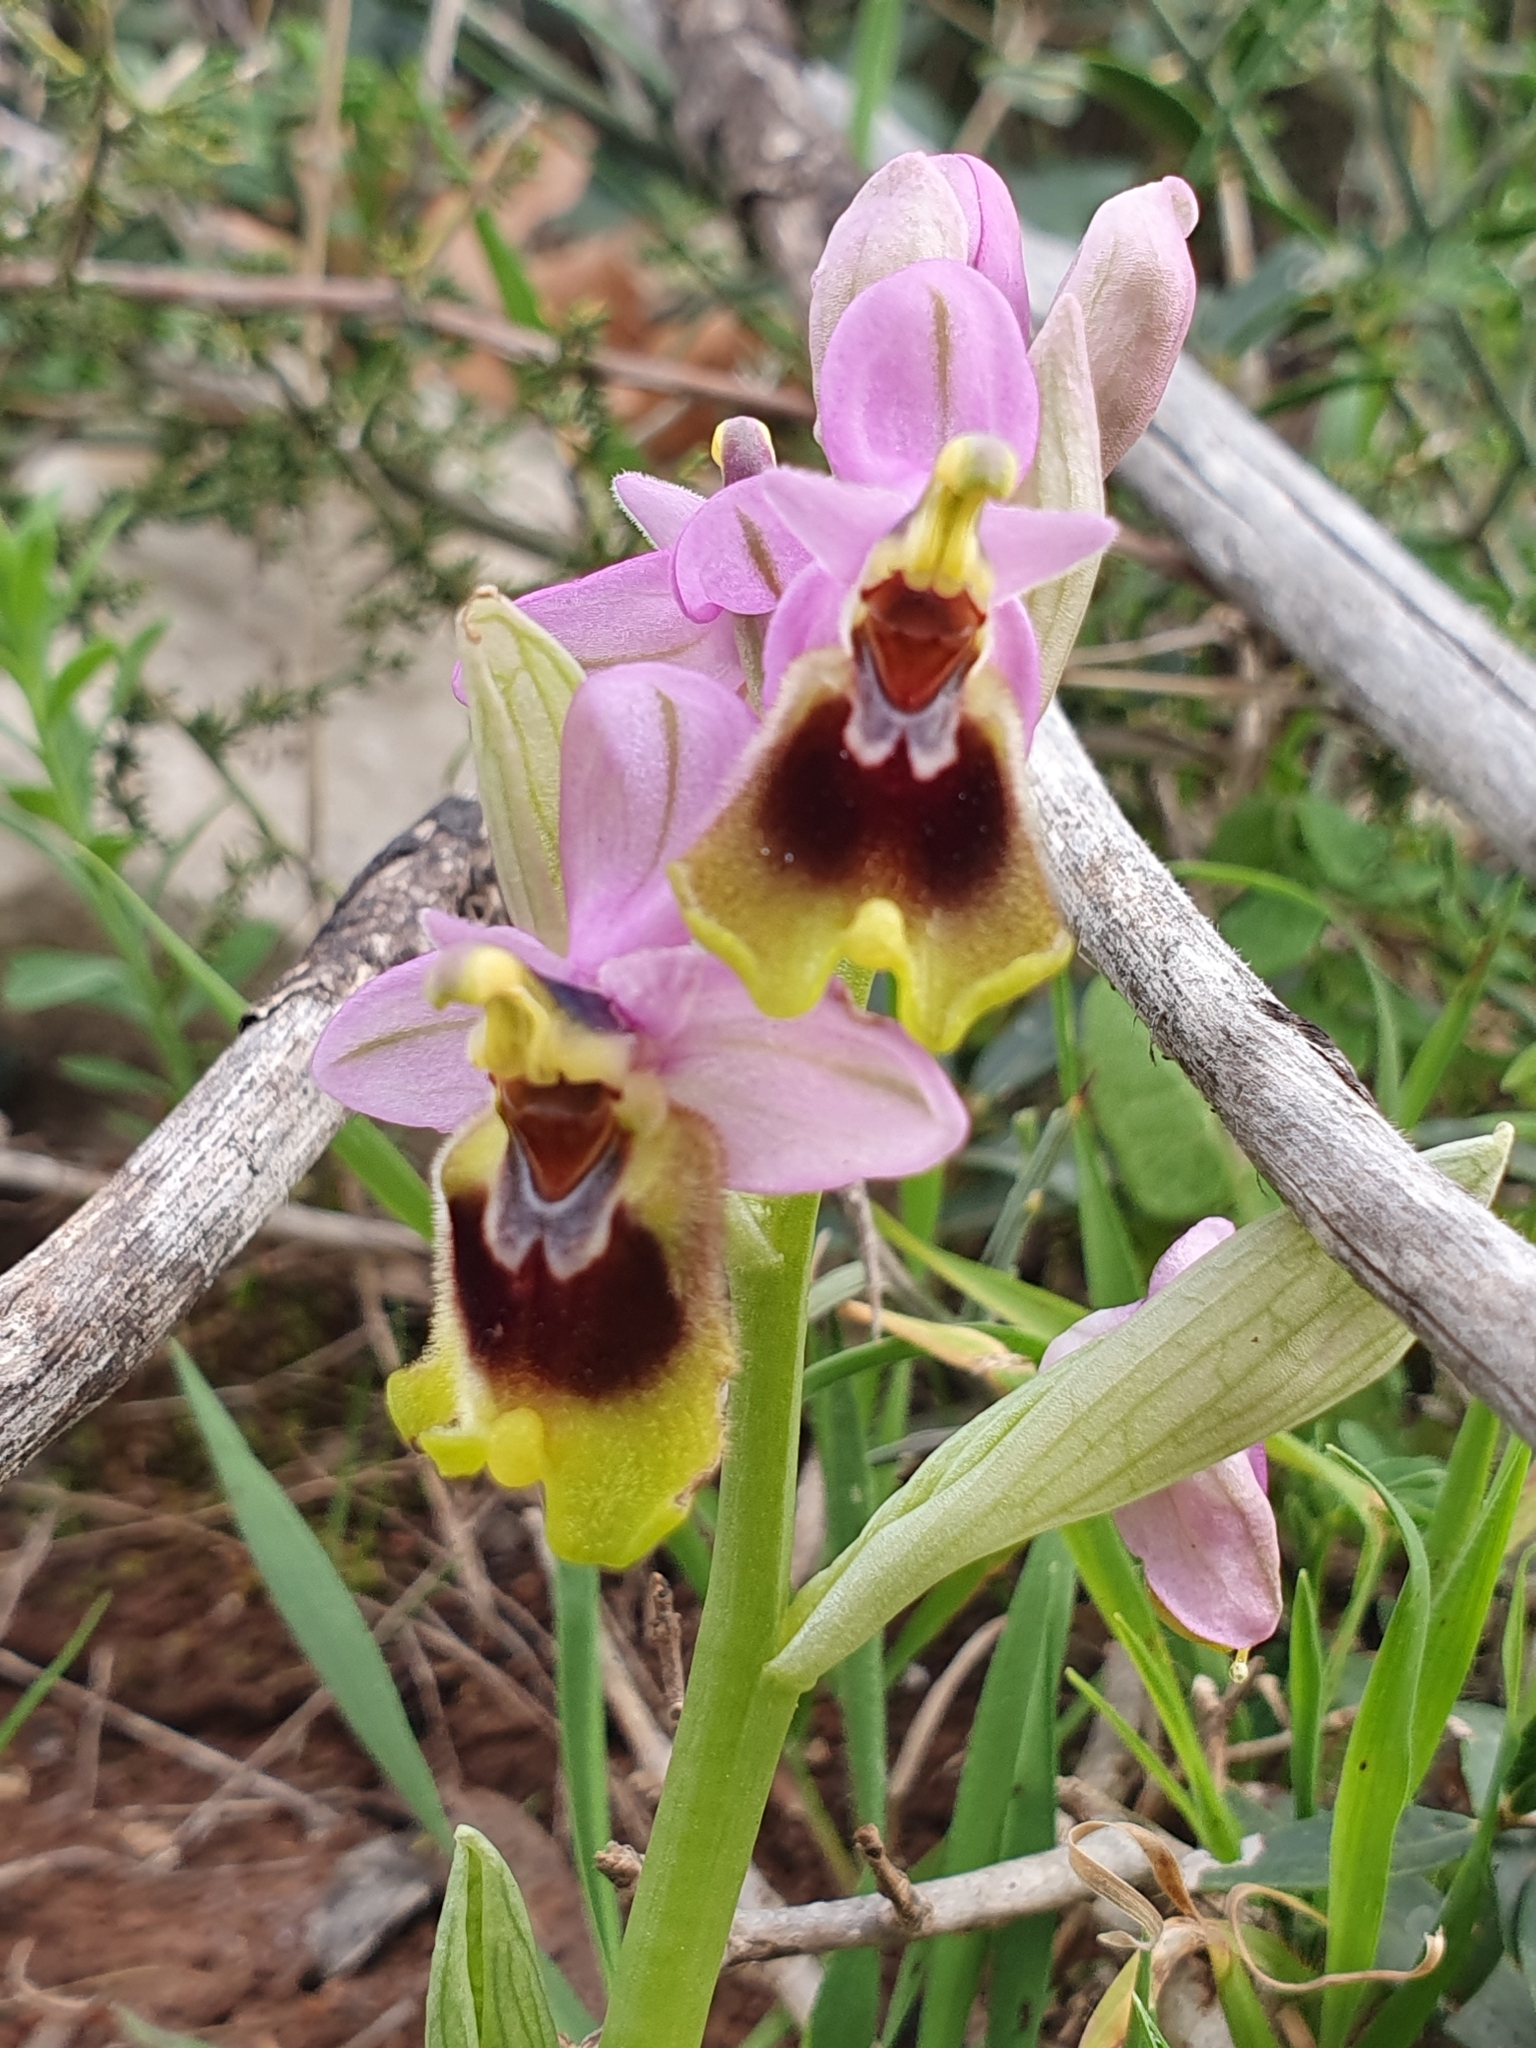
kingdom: Plantae
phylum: Tracheophyta
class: Liliopsida
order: Asparagales
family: Orchidaceae
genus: Ophrys
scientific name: Ophrys tenthredinifera
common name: Sawfly orchid
